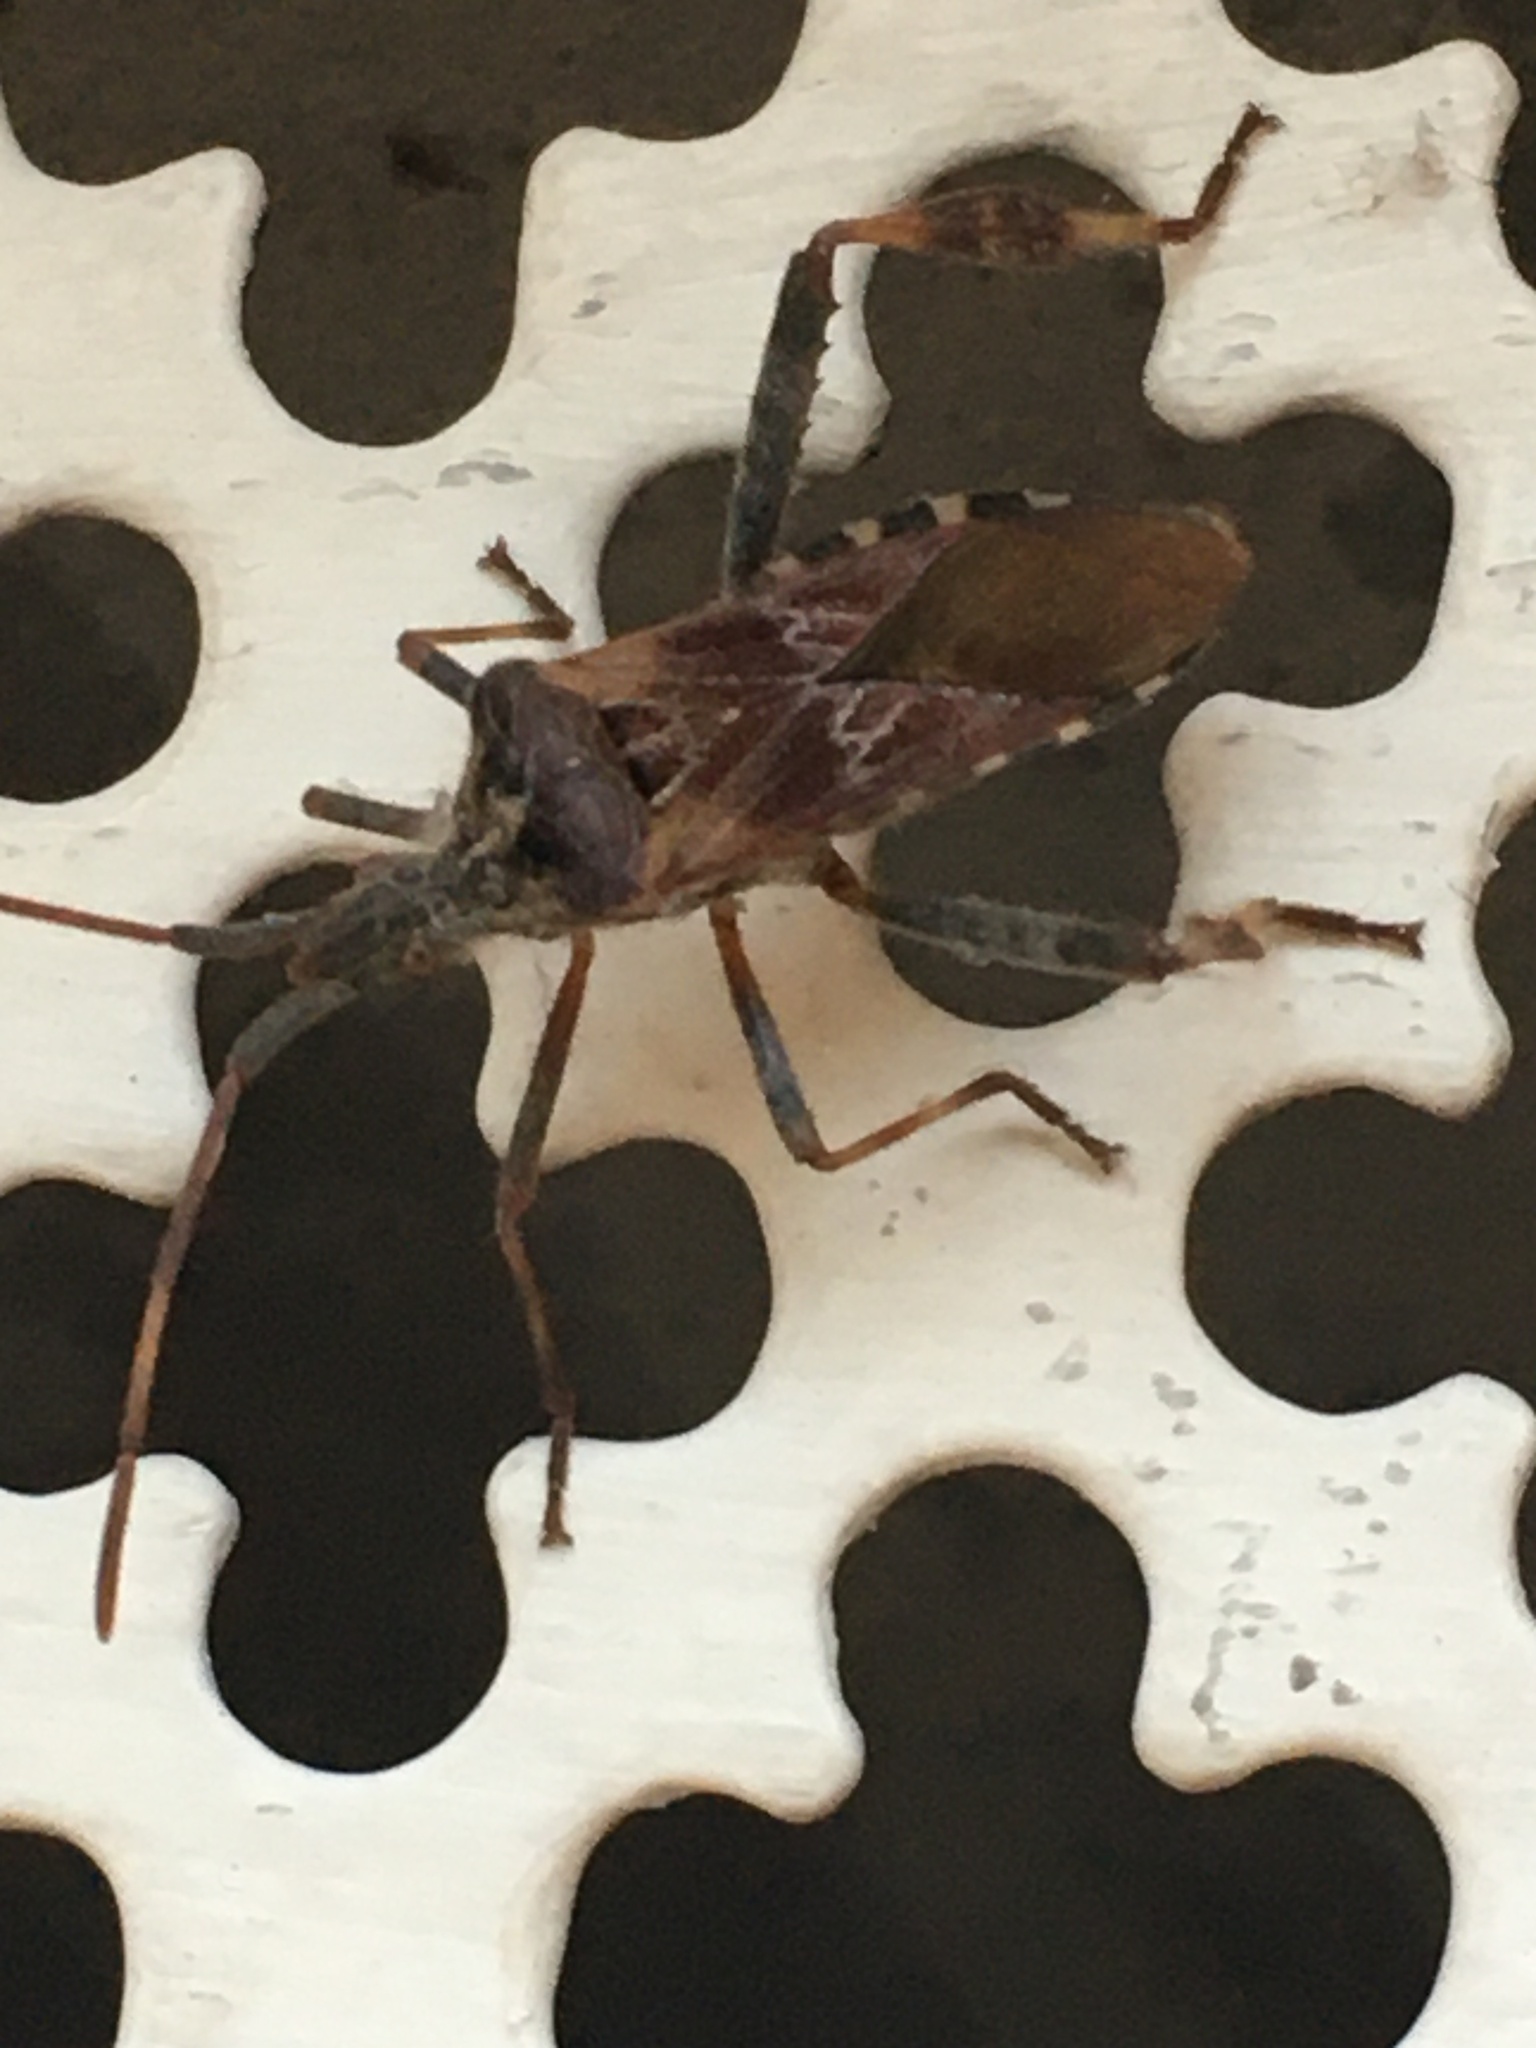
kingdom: Animalia
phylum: Arthropoda
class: Insecta
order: Hemiptera
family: Coreidae
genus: Leptoglossus
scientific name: Leptoglossus occidentalis
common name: Western conifer-seed bug
